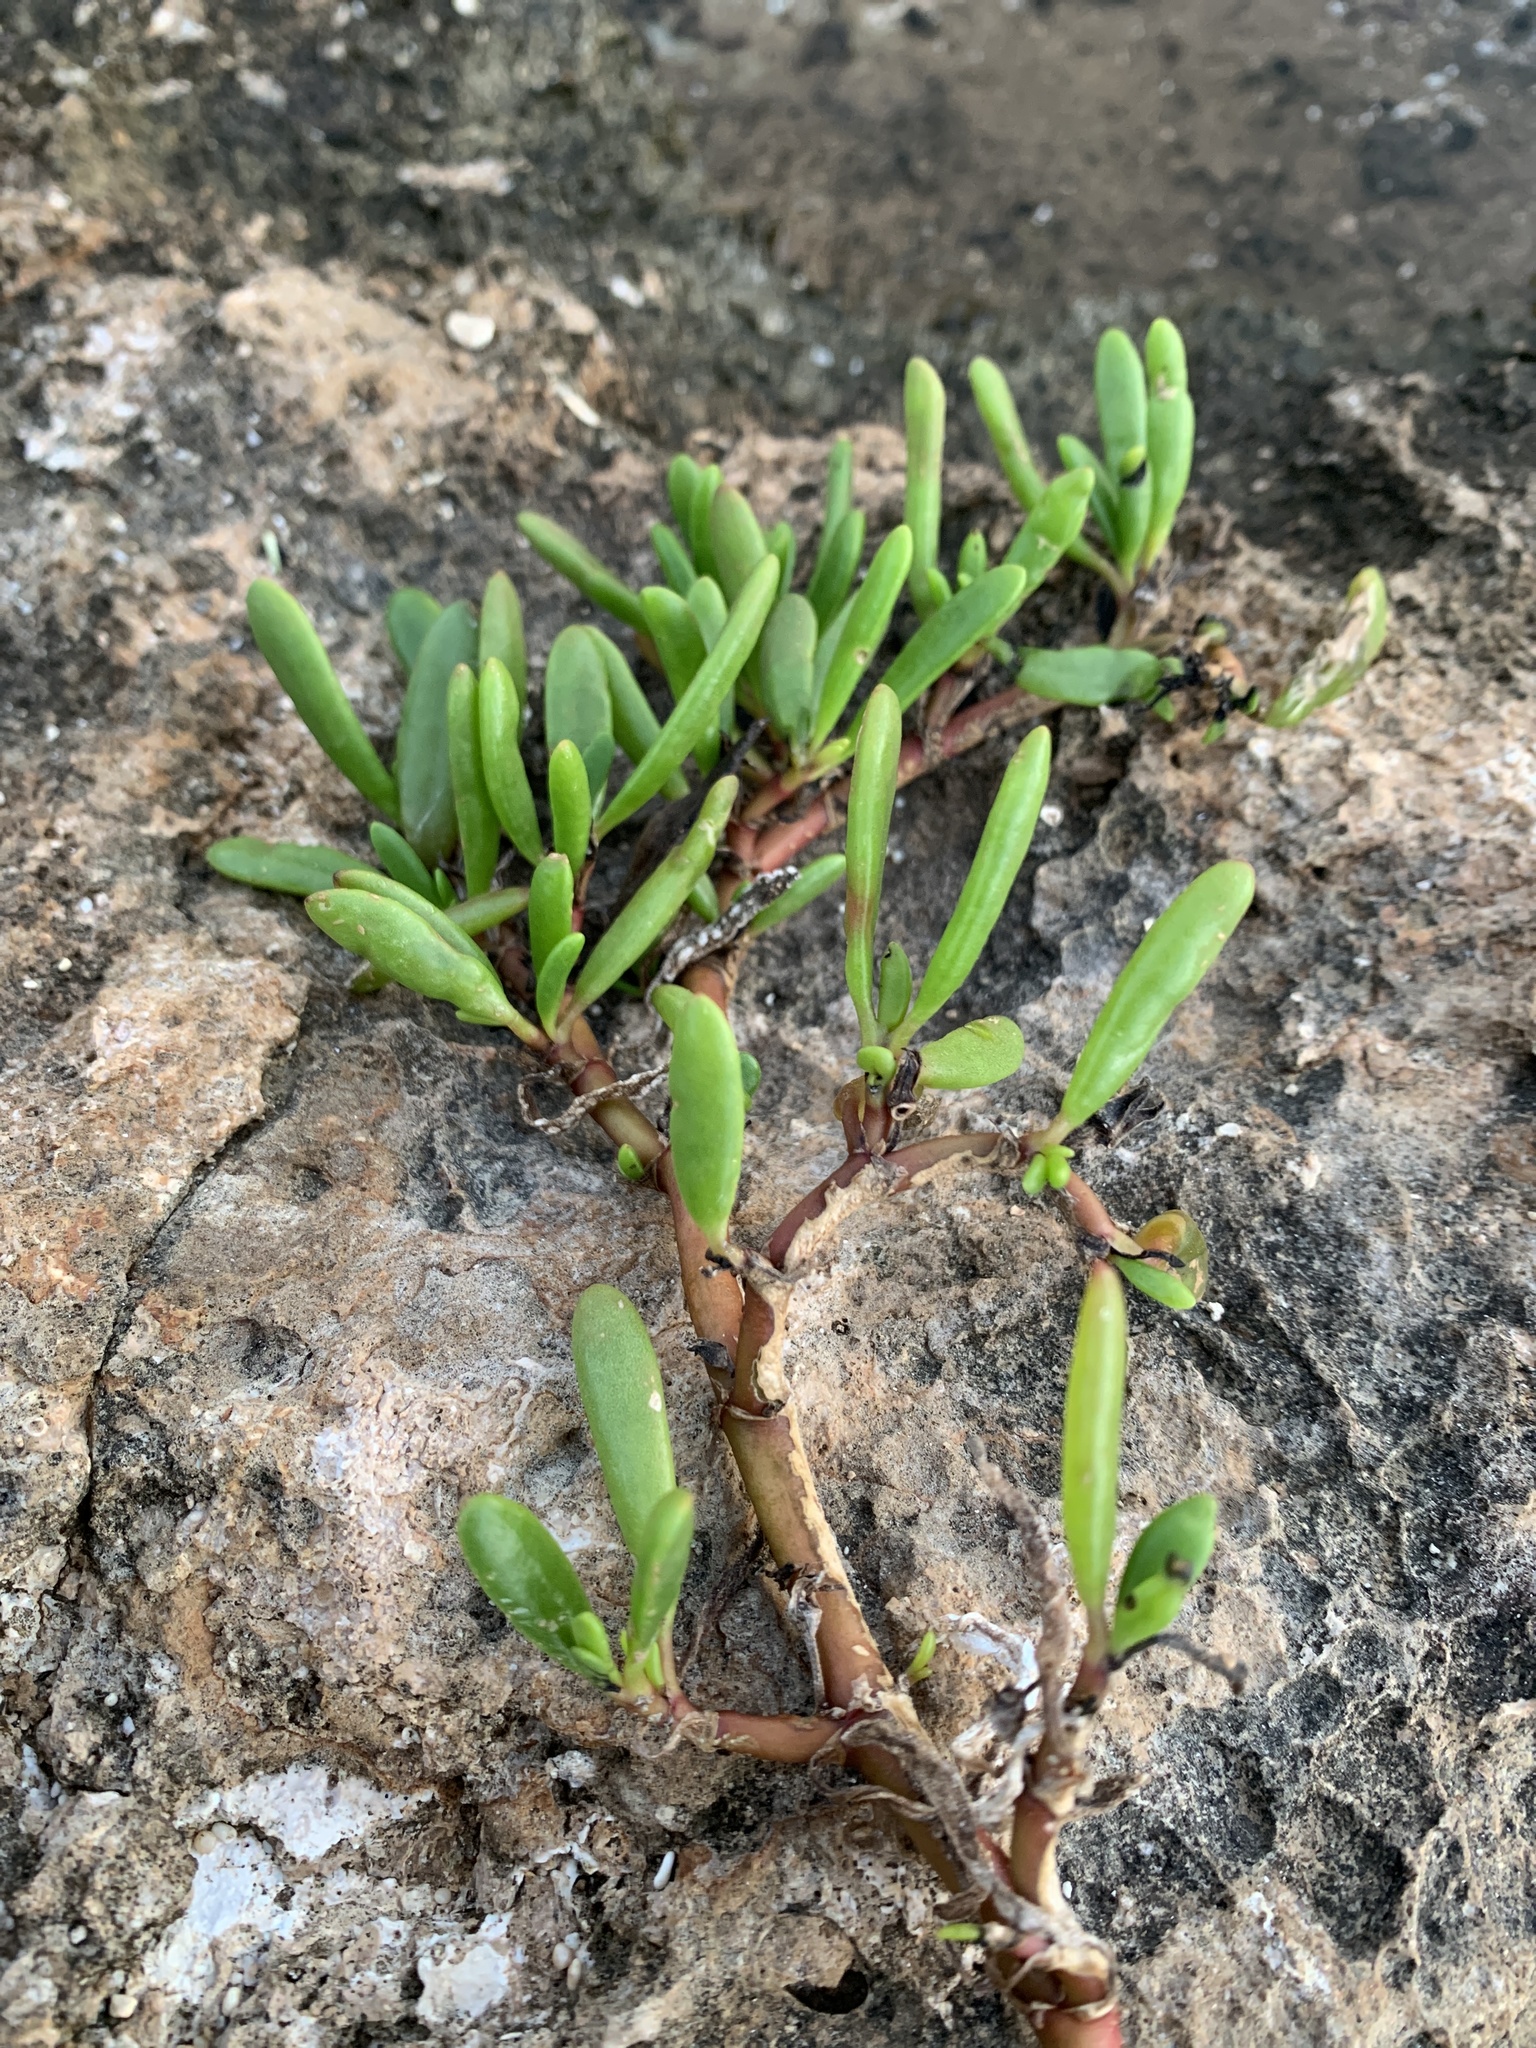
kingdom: Plantae
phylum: Tracheophyta
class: Magnoliopsida
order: Caryophyllales
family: Aizoaceae
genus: Sesuvium
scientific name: Sesuvium portulacastrum
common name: Sea-purslane
